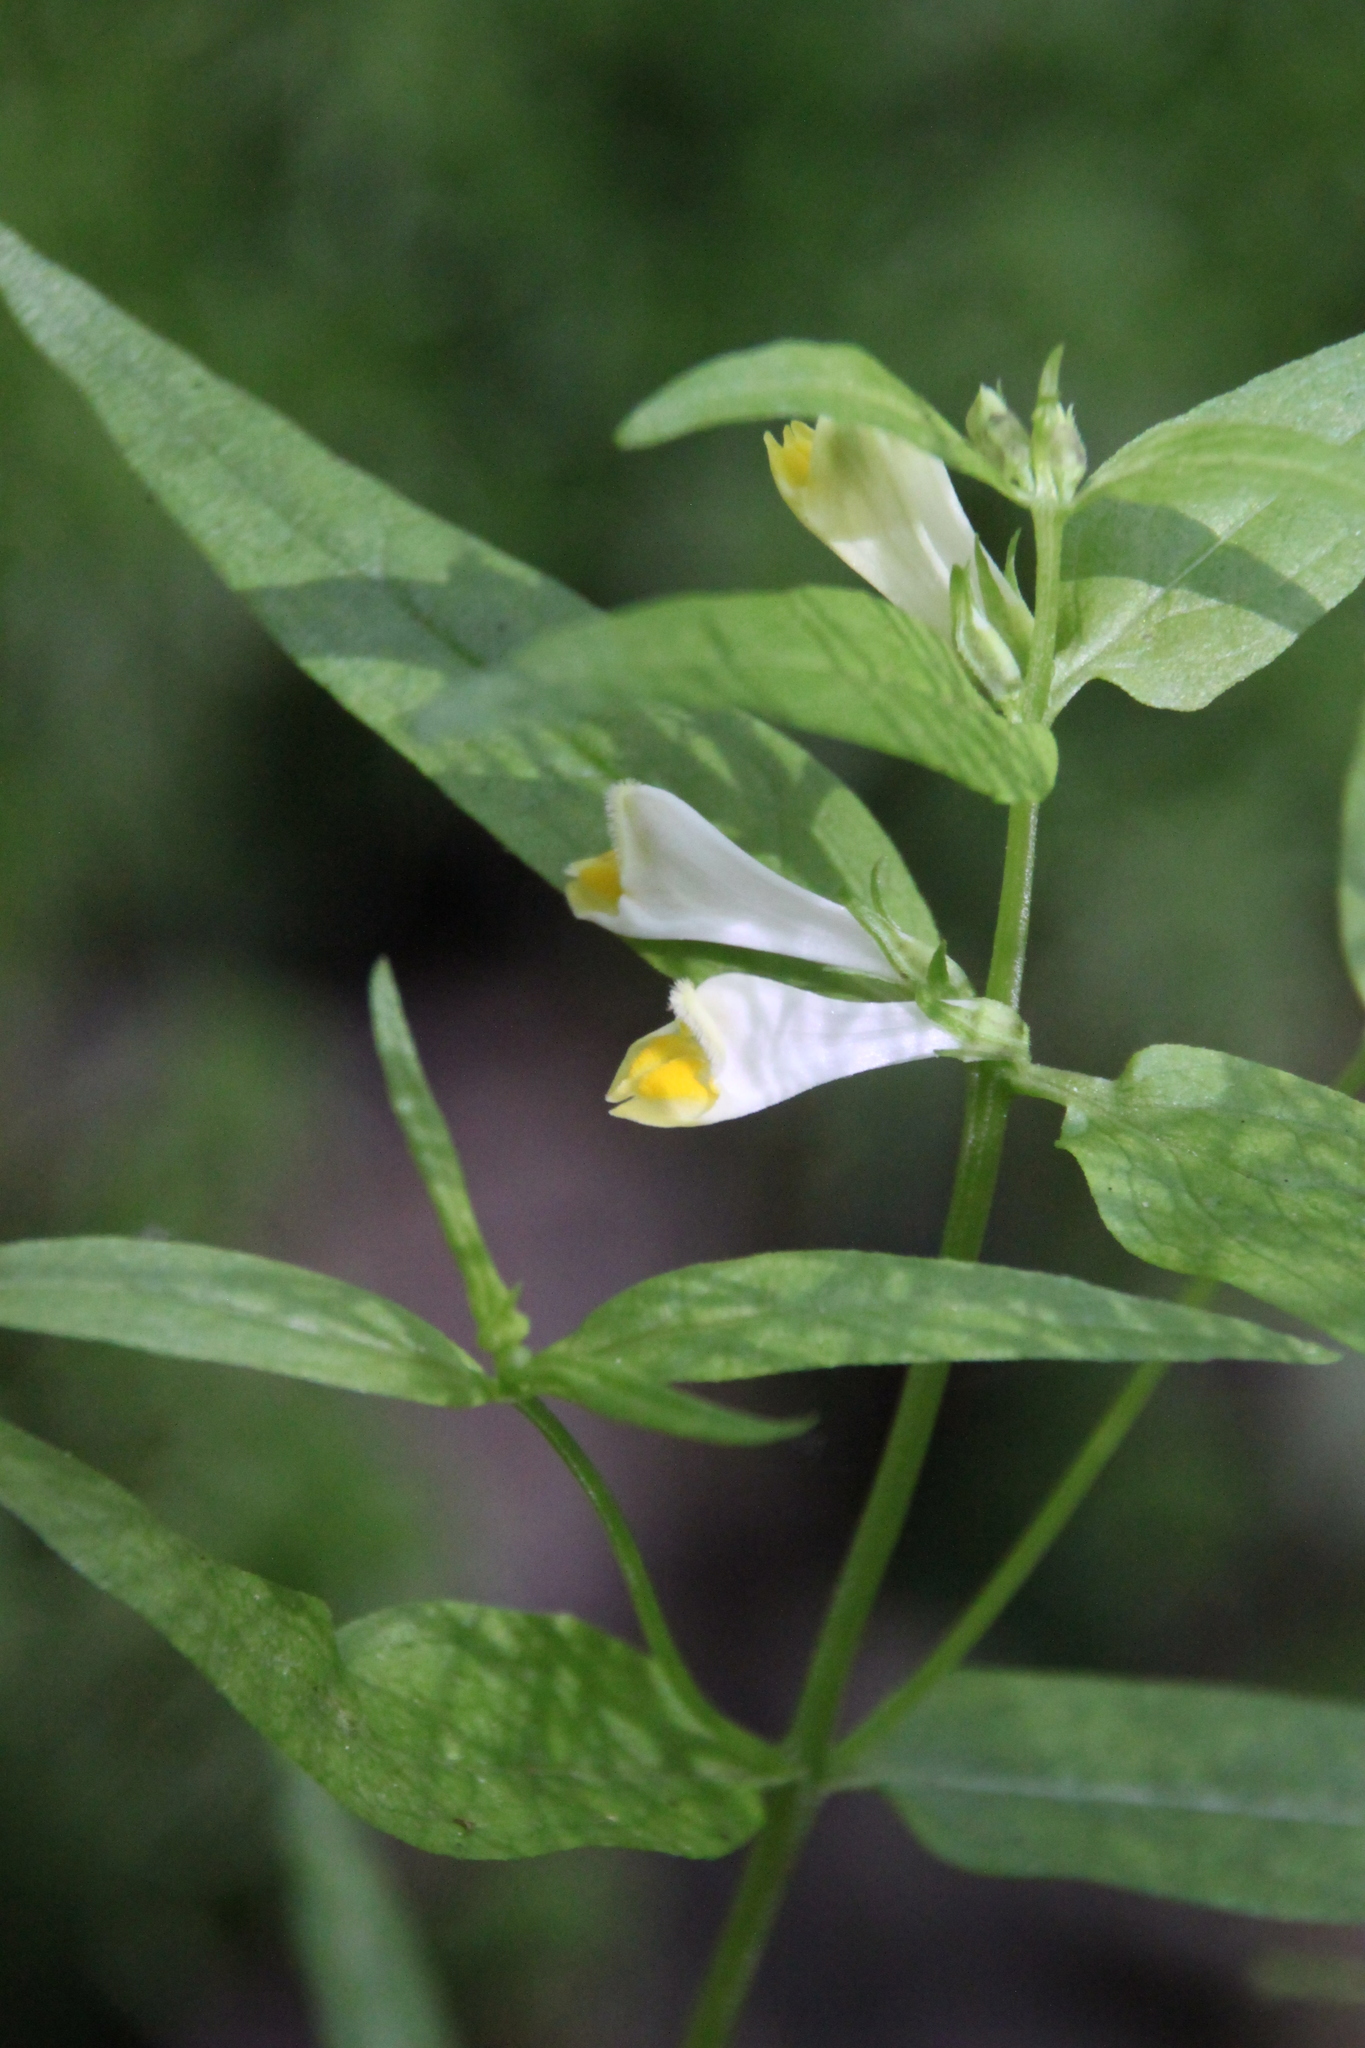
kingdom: Plantae
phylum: Tracheophyta
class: Magnoliopsida
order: Lamiales
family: Orobanchaceae
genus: Melampyrum
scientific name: Melampyrum pratense
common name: Common cow-wheat
